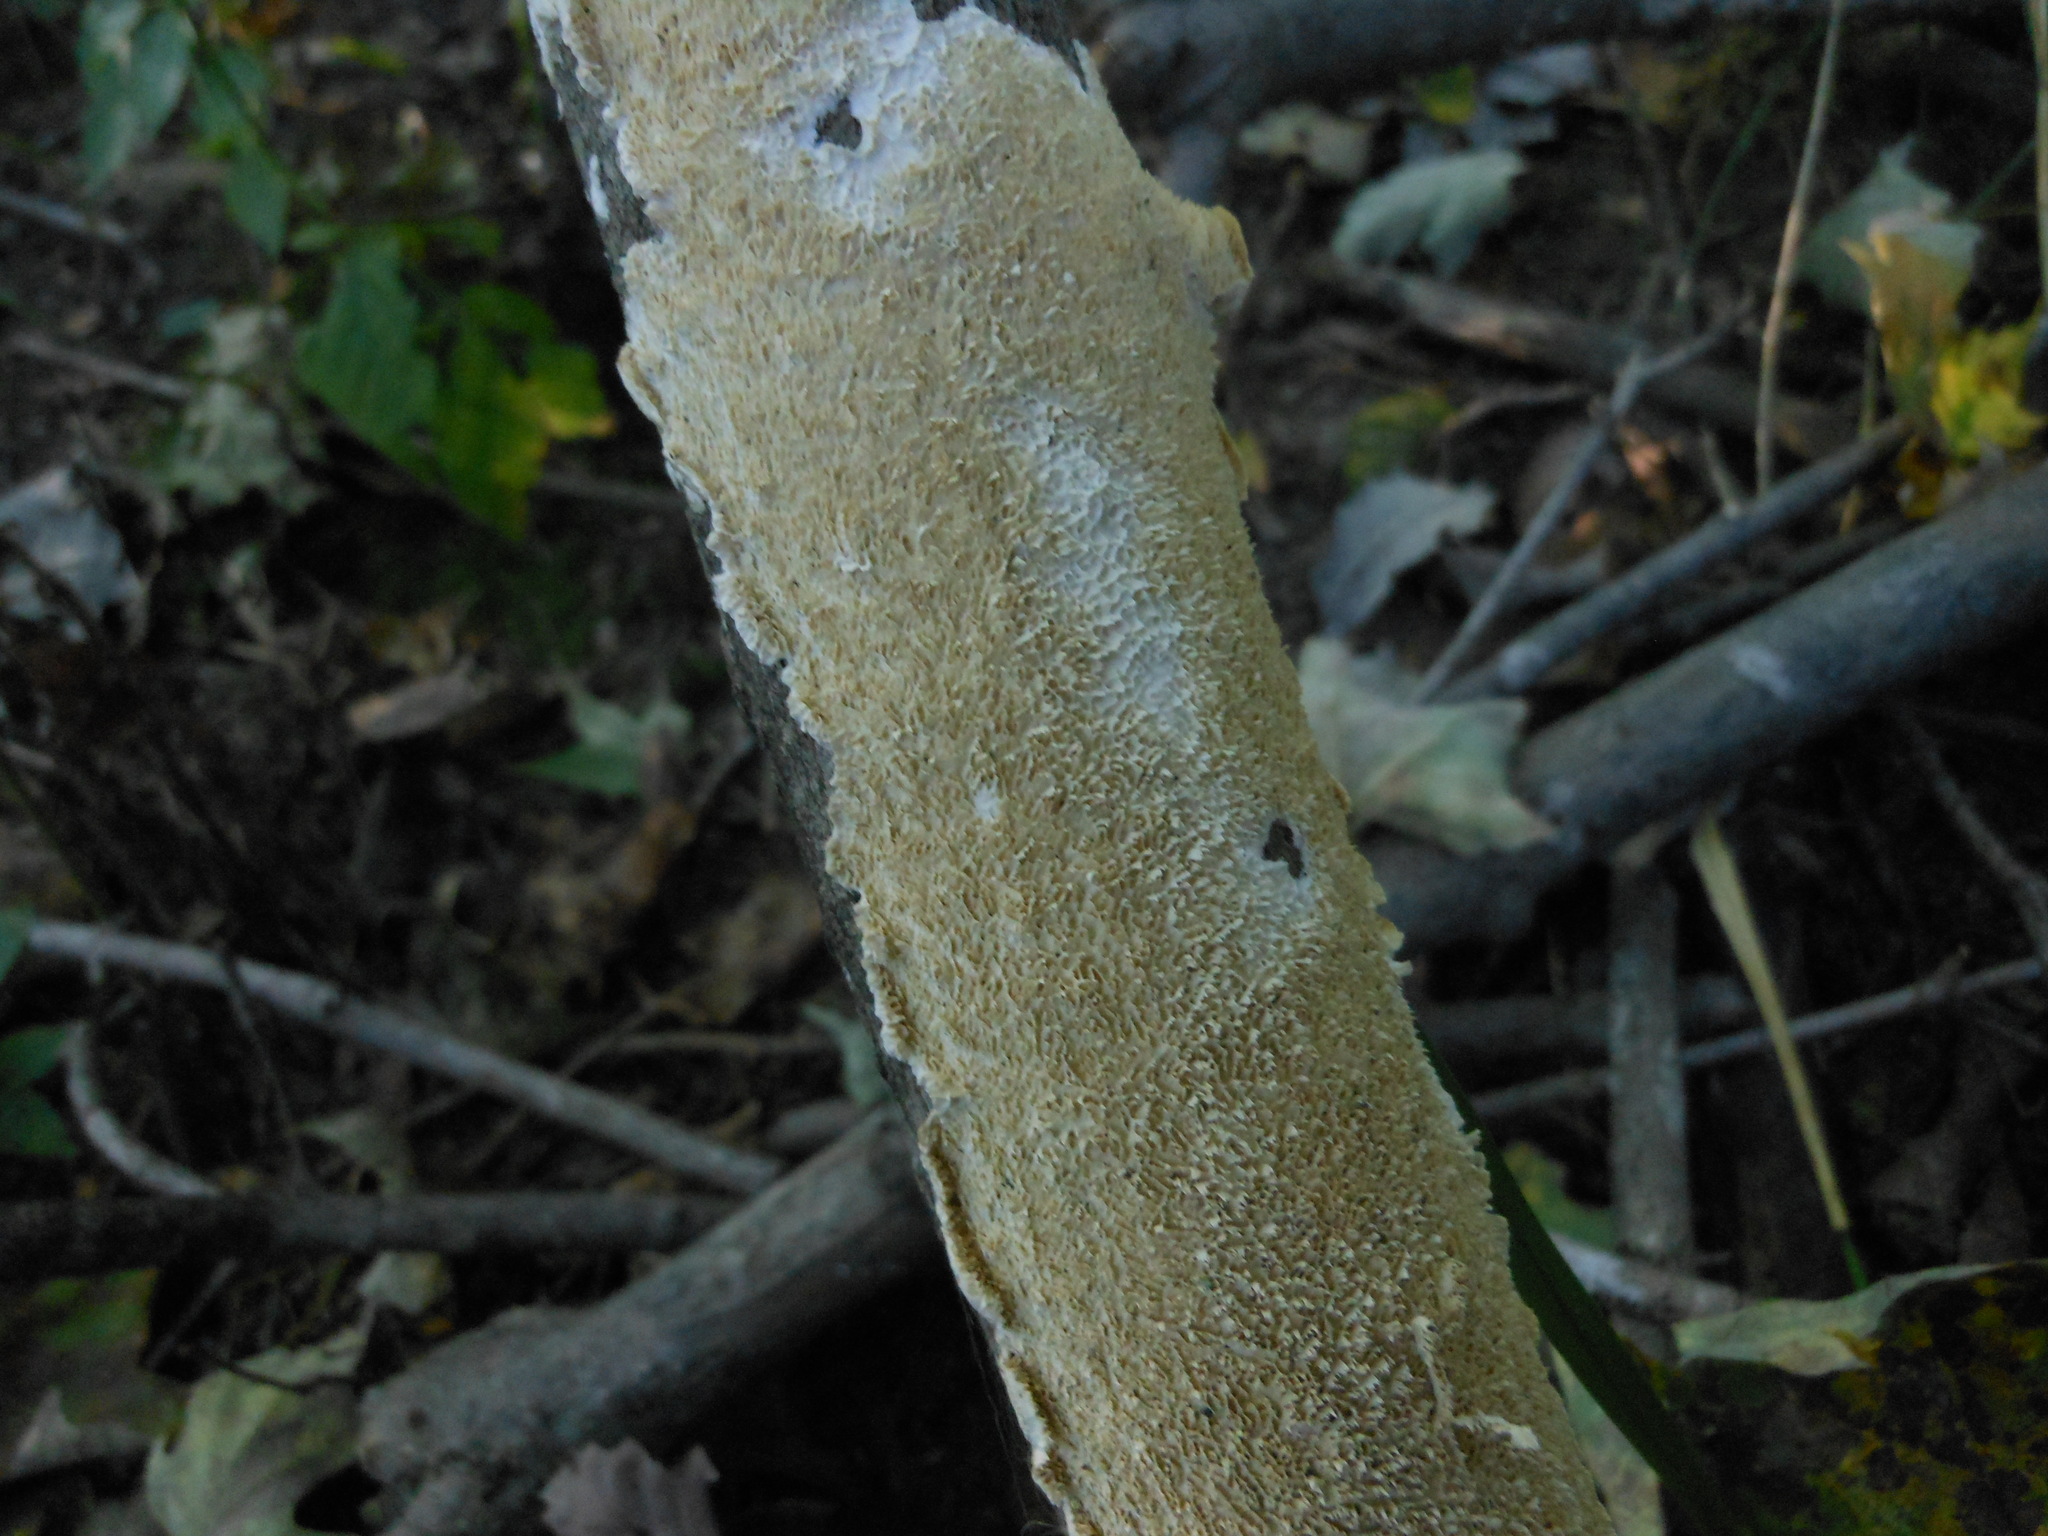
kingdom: Fungi
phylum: Basidiomycota
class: Agaricomycetes
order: Polyporales
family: Irpicaceae
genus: Irpex
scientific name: Irpex lacteus
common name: Milk-white toothed polypore
